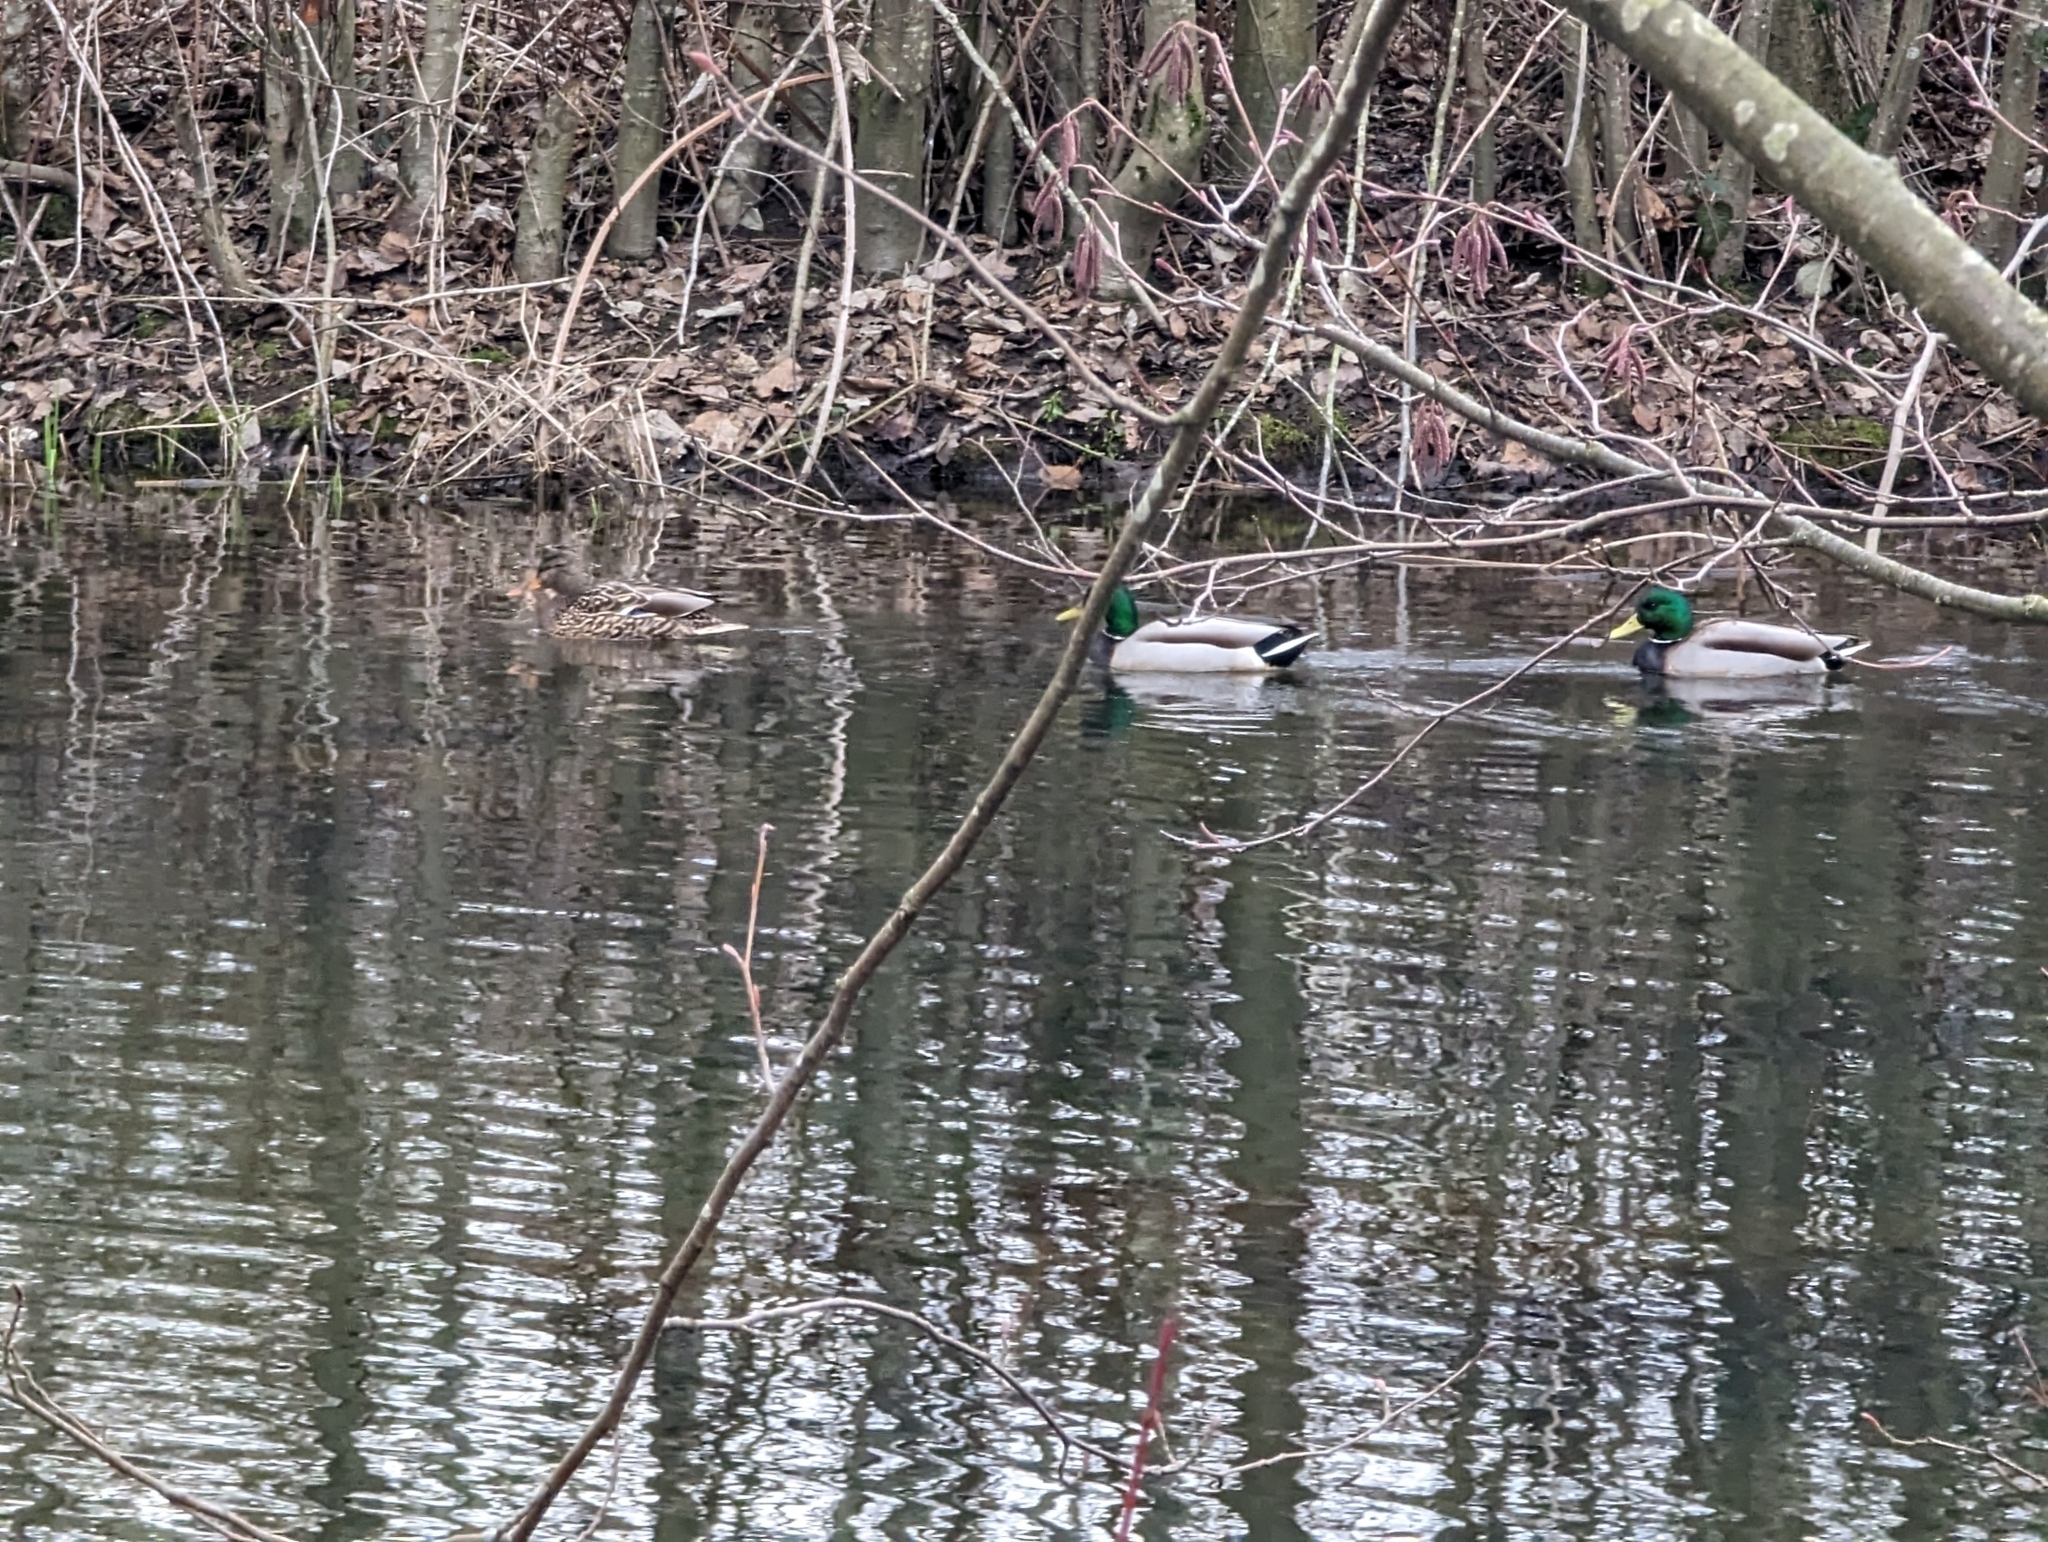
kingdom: Animalia
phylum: Chordata
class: Aves
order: Anseriformes
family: Anatidae
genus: Anas
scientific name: Anas platyrhynchos
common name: Mallard
